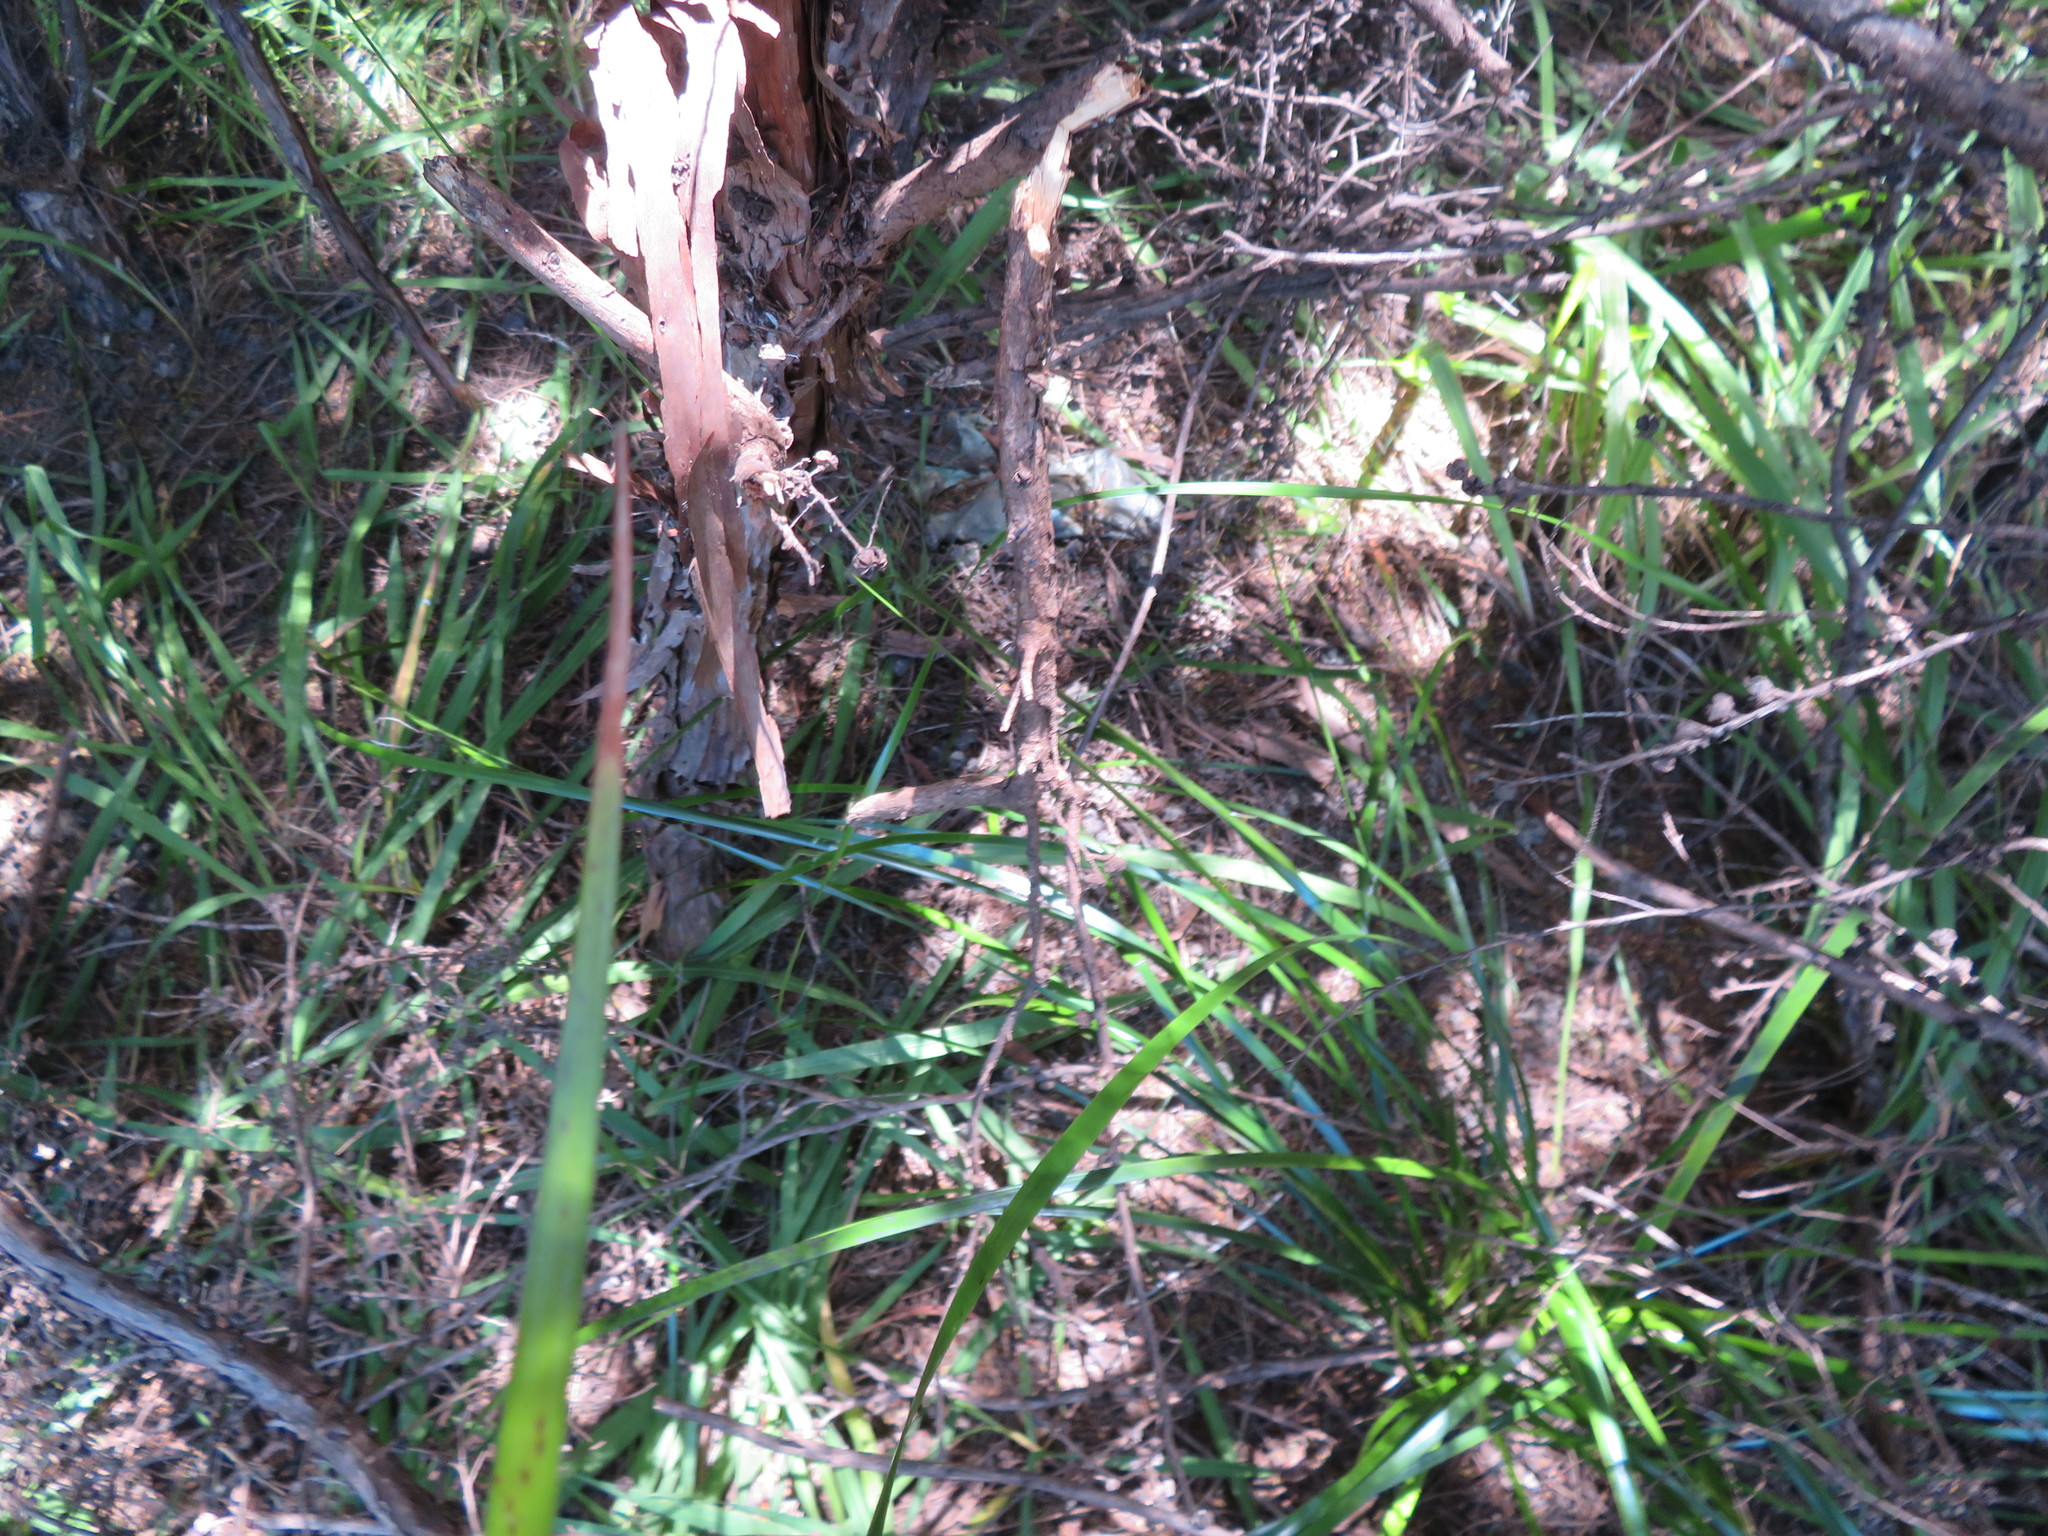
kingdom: Plantae
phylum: Tracheophyta
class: Liliopsida
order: Poales
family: Cyperaceae
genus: Lepidosperma
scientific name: Lepidosperma laterale
